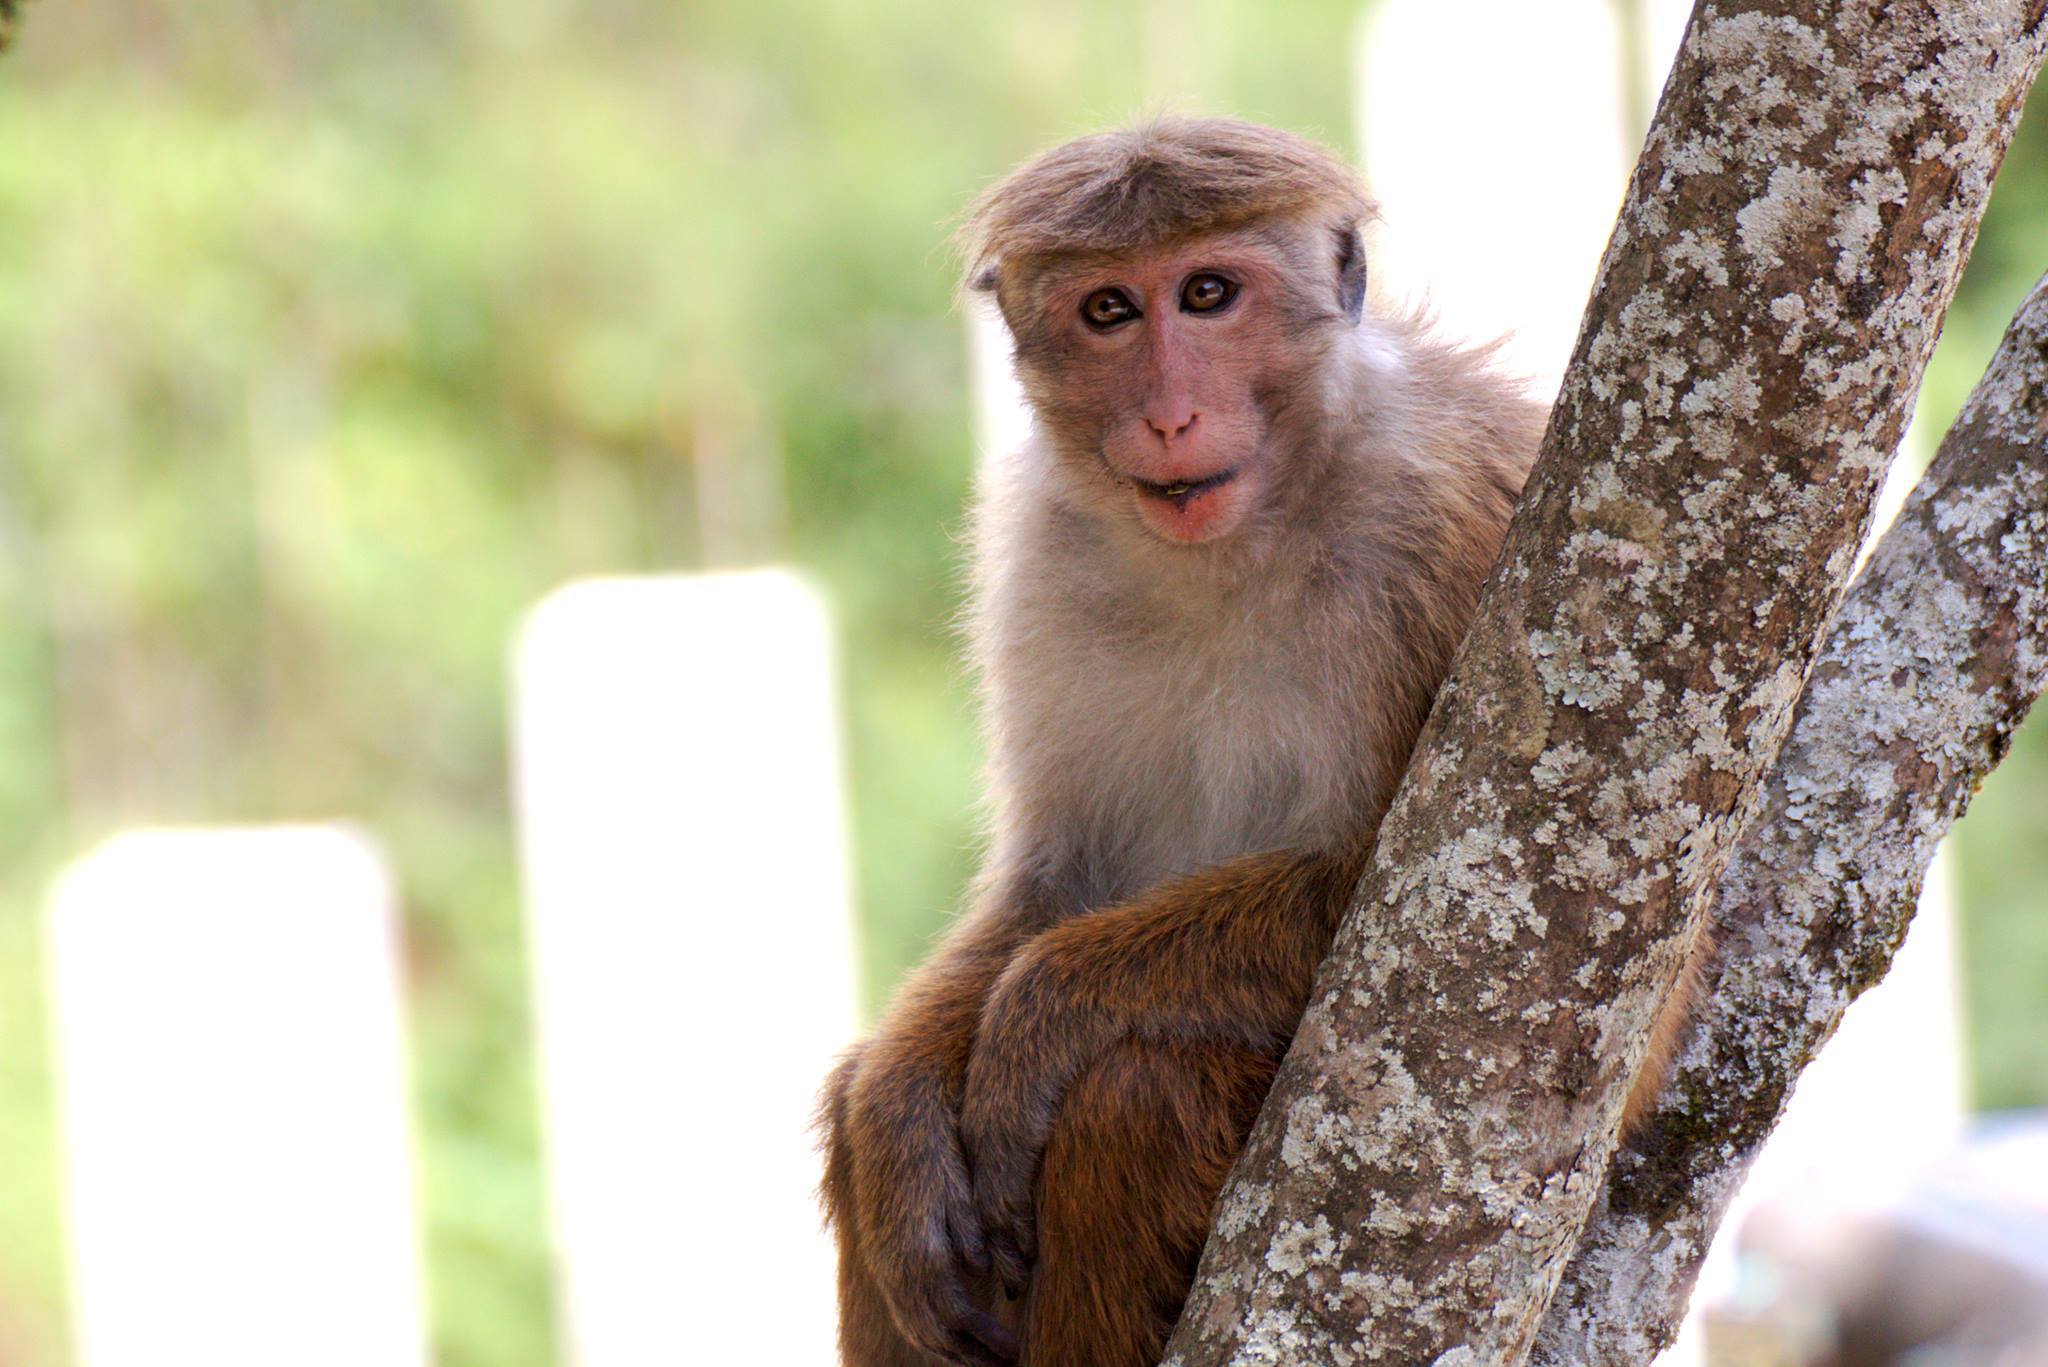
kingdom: Animalia
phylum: Chordata
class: Mammalia
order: Primates
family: Cercopithecidae
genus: Macaca
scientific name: Macaca sinica
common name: Toque macaque
